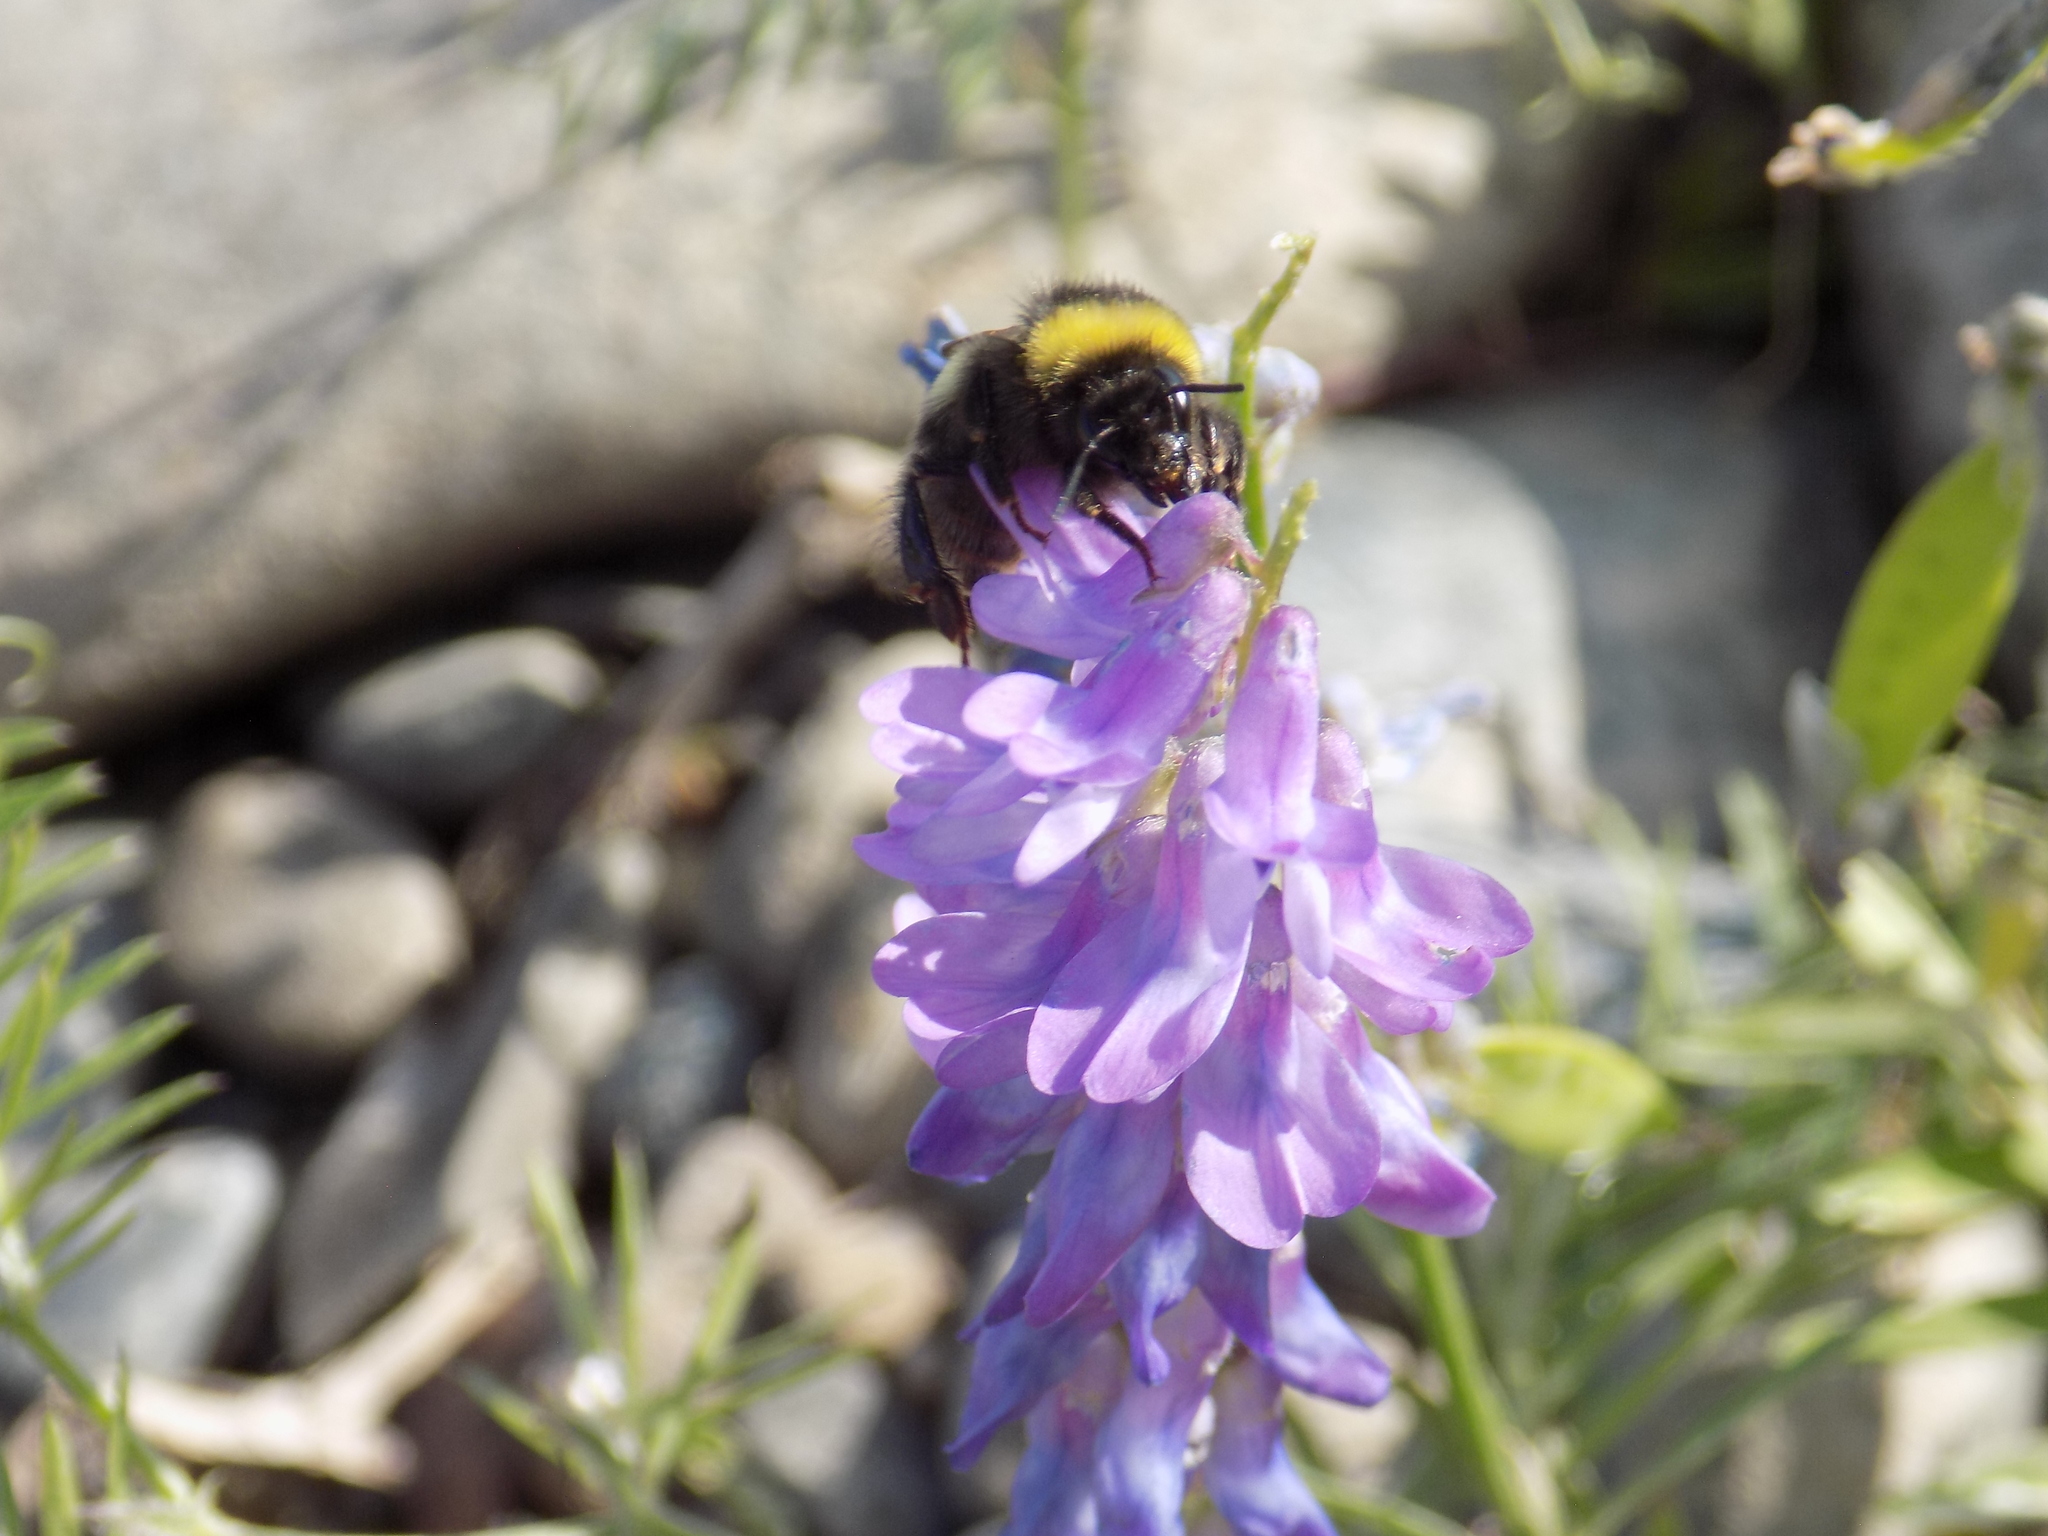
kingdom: Animalia
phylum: Arthropoda
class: Insecta
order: Hymenoptera
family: Apidae
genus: Bombus
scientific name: Bombus
